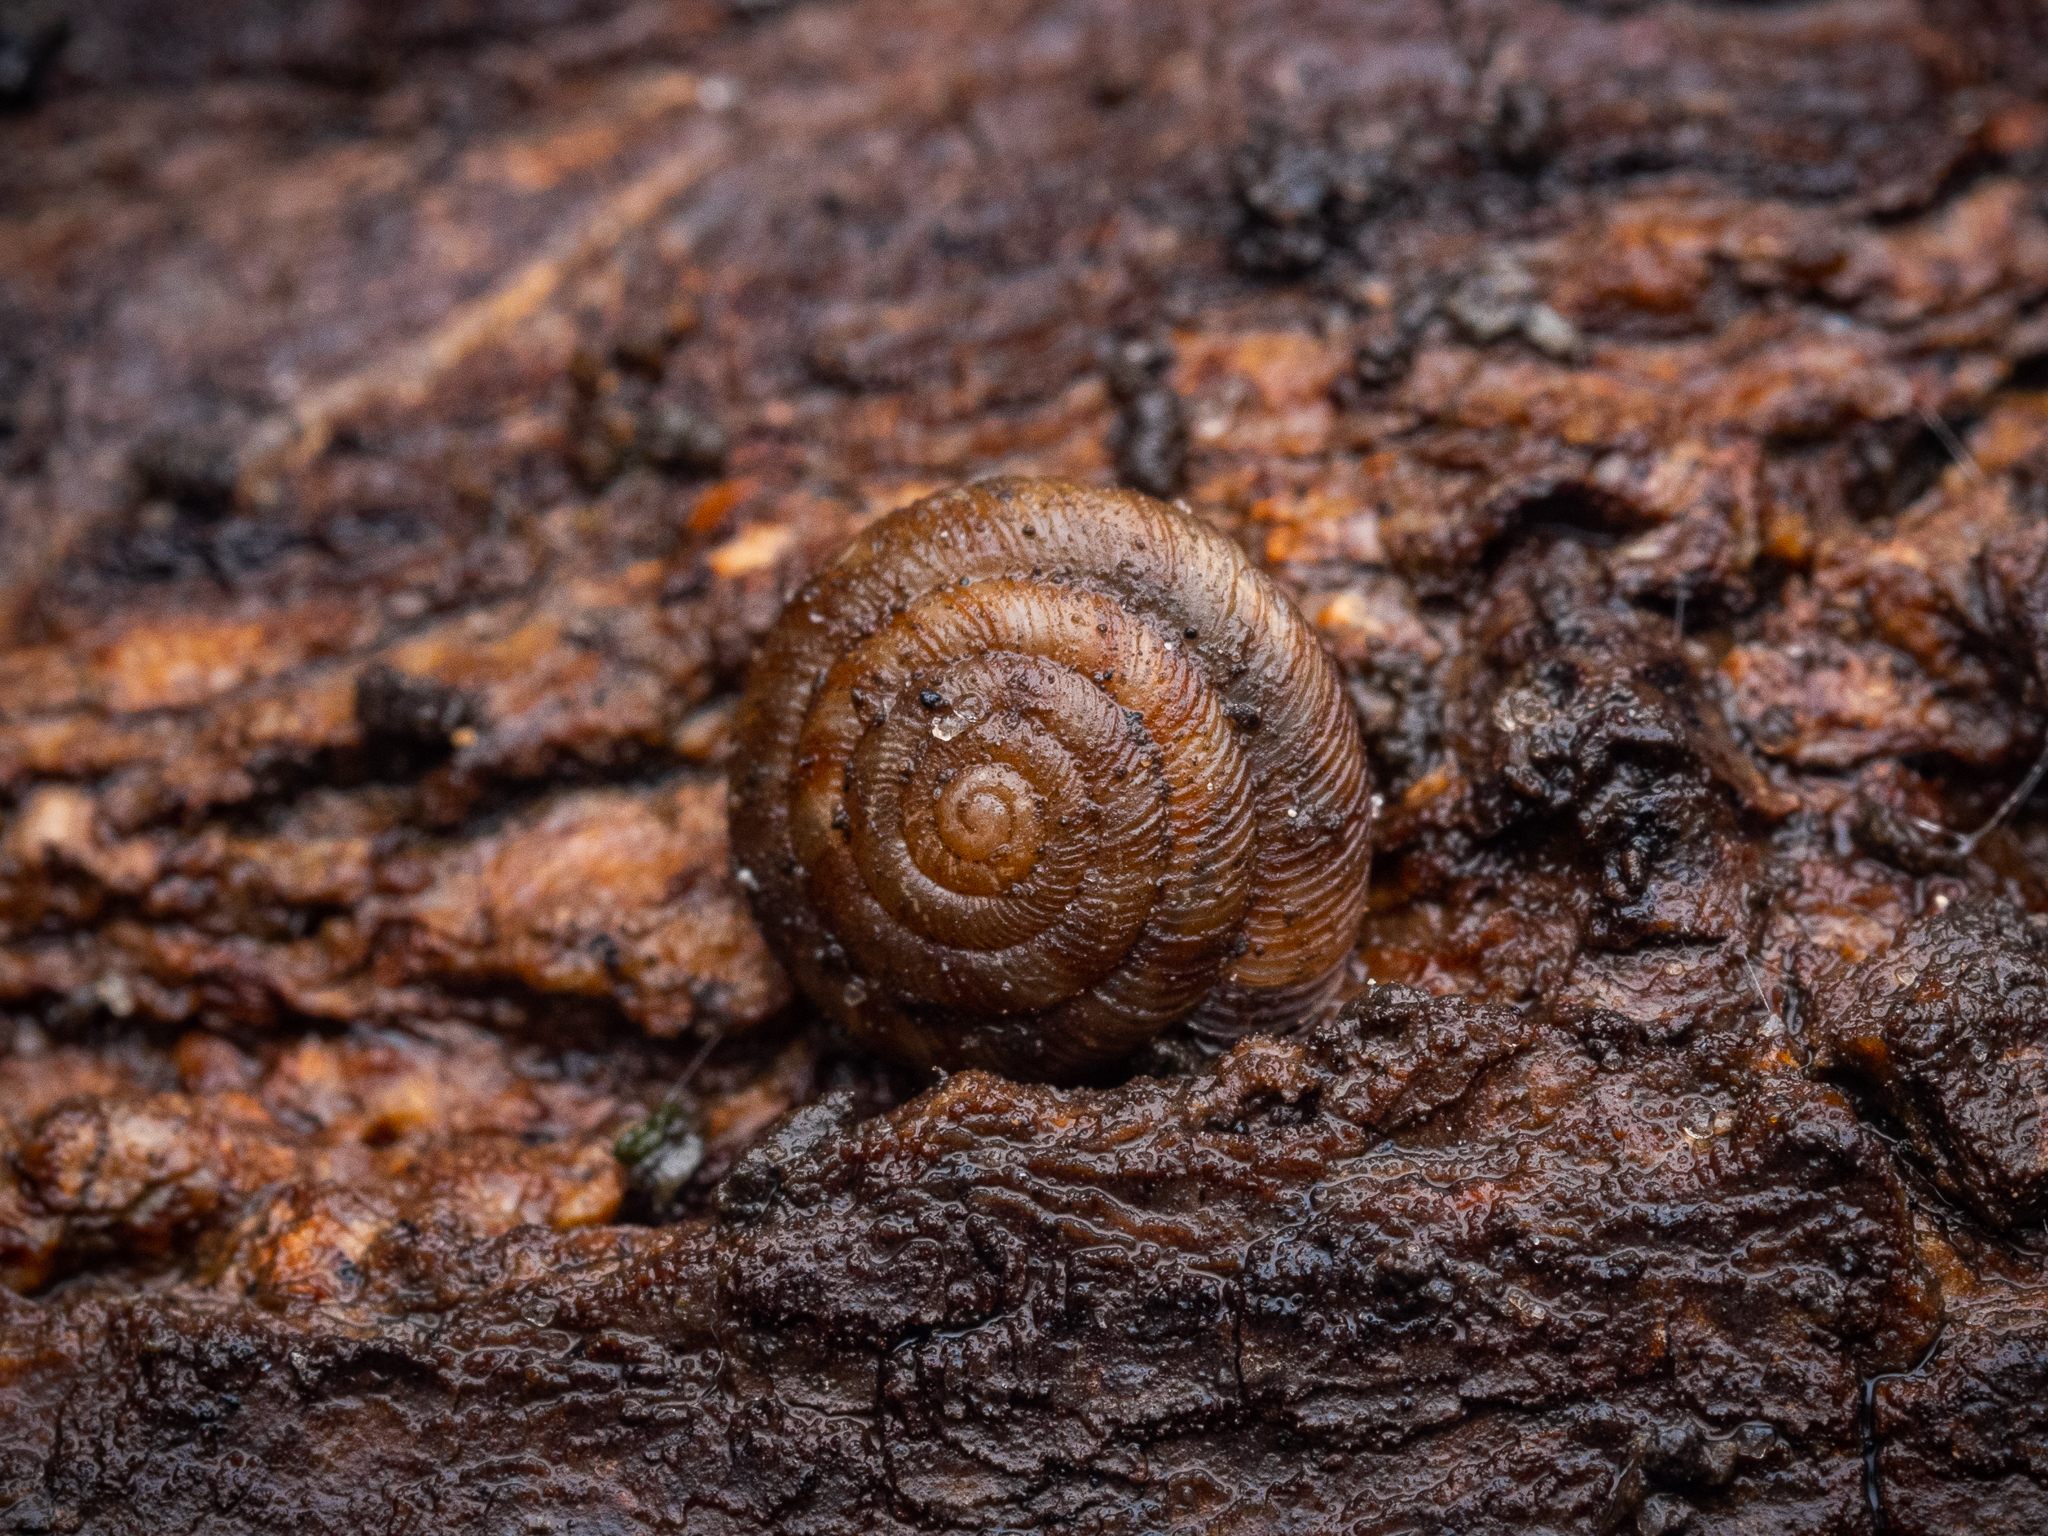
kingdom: Animalia
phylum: Mollusca
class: Gastropoda
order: Stylommatophora
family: Discidae
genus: Discus
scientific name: Discus rotundatus
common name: Rounded snail
